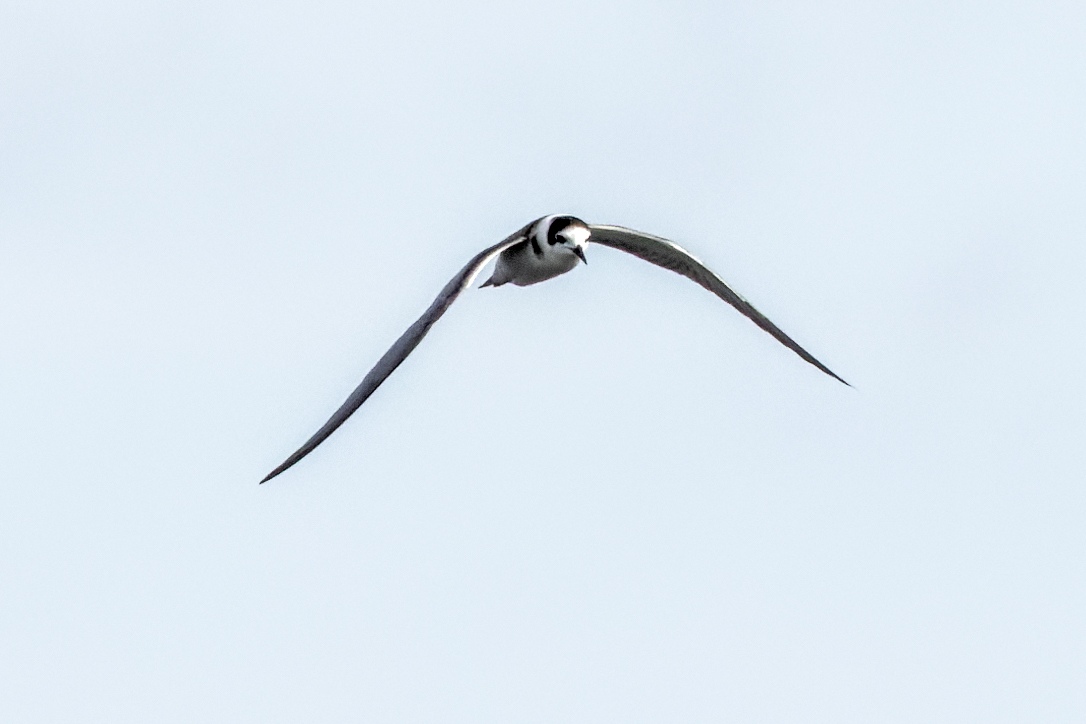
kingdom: Animalia
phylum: Chordata
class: Aves
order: Charadriiformes
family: Laridae
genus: Chlidonias
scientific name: Chlidonias niger
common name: Black tern
